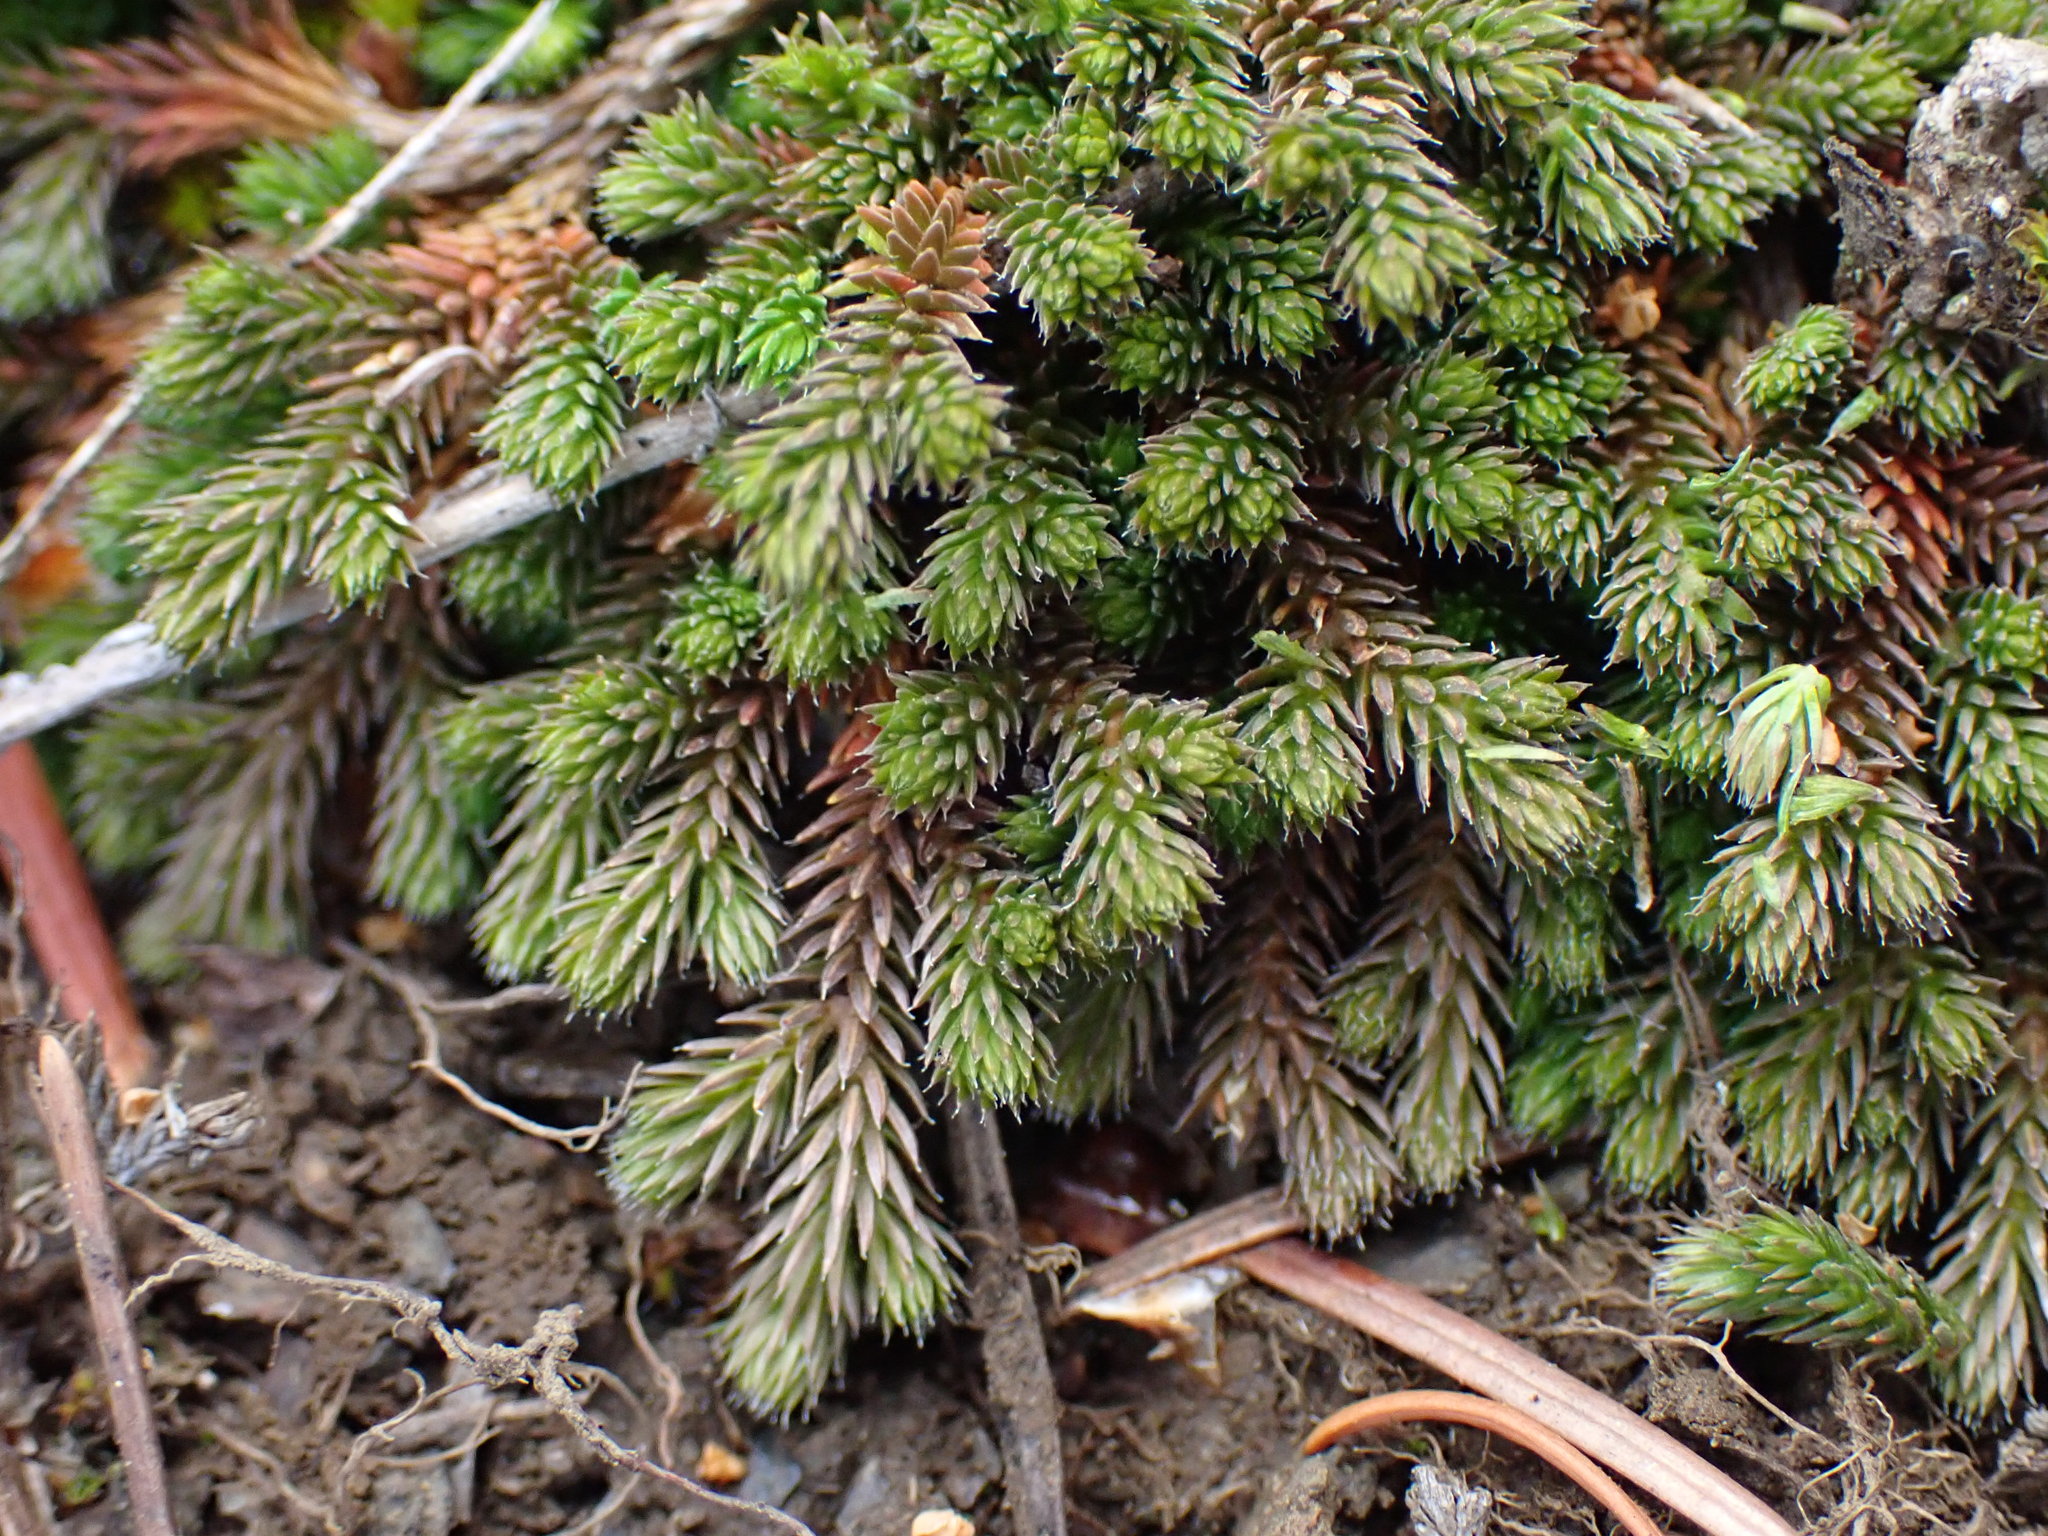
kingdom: Plantae
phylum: Tracheophyta
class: Lycopodiopsida
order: Selaginellales
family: Selaginellaceae
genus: Selaginella
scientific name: Selaginella wallacei
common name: Wallace's selaginella
